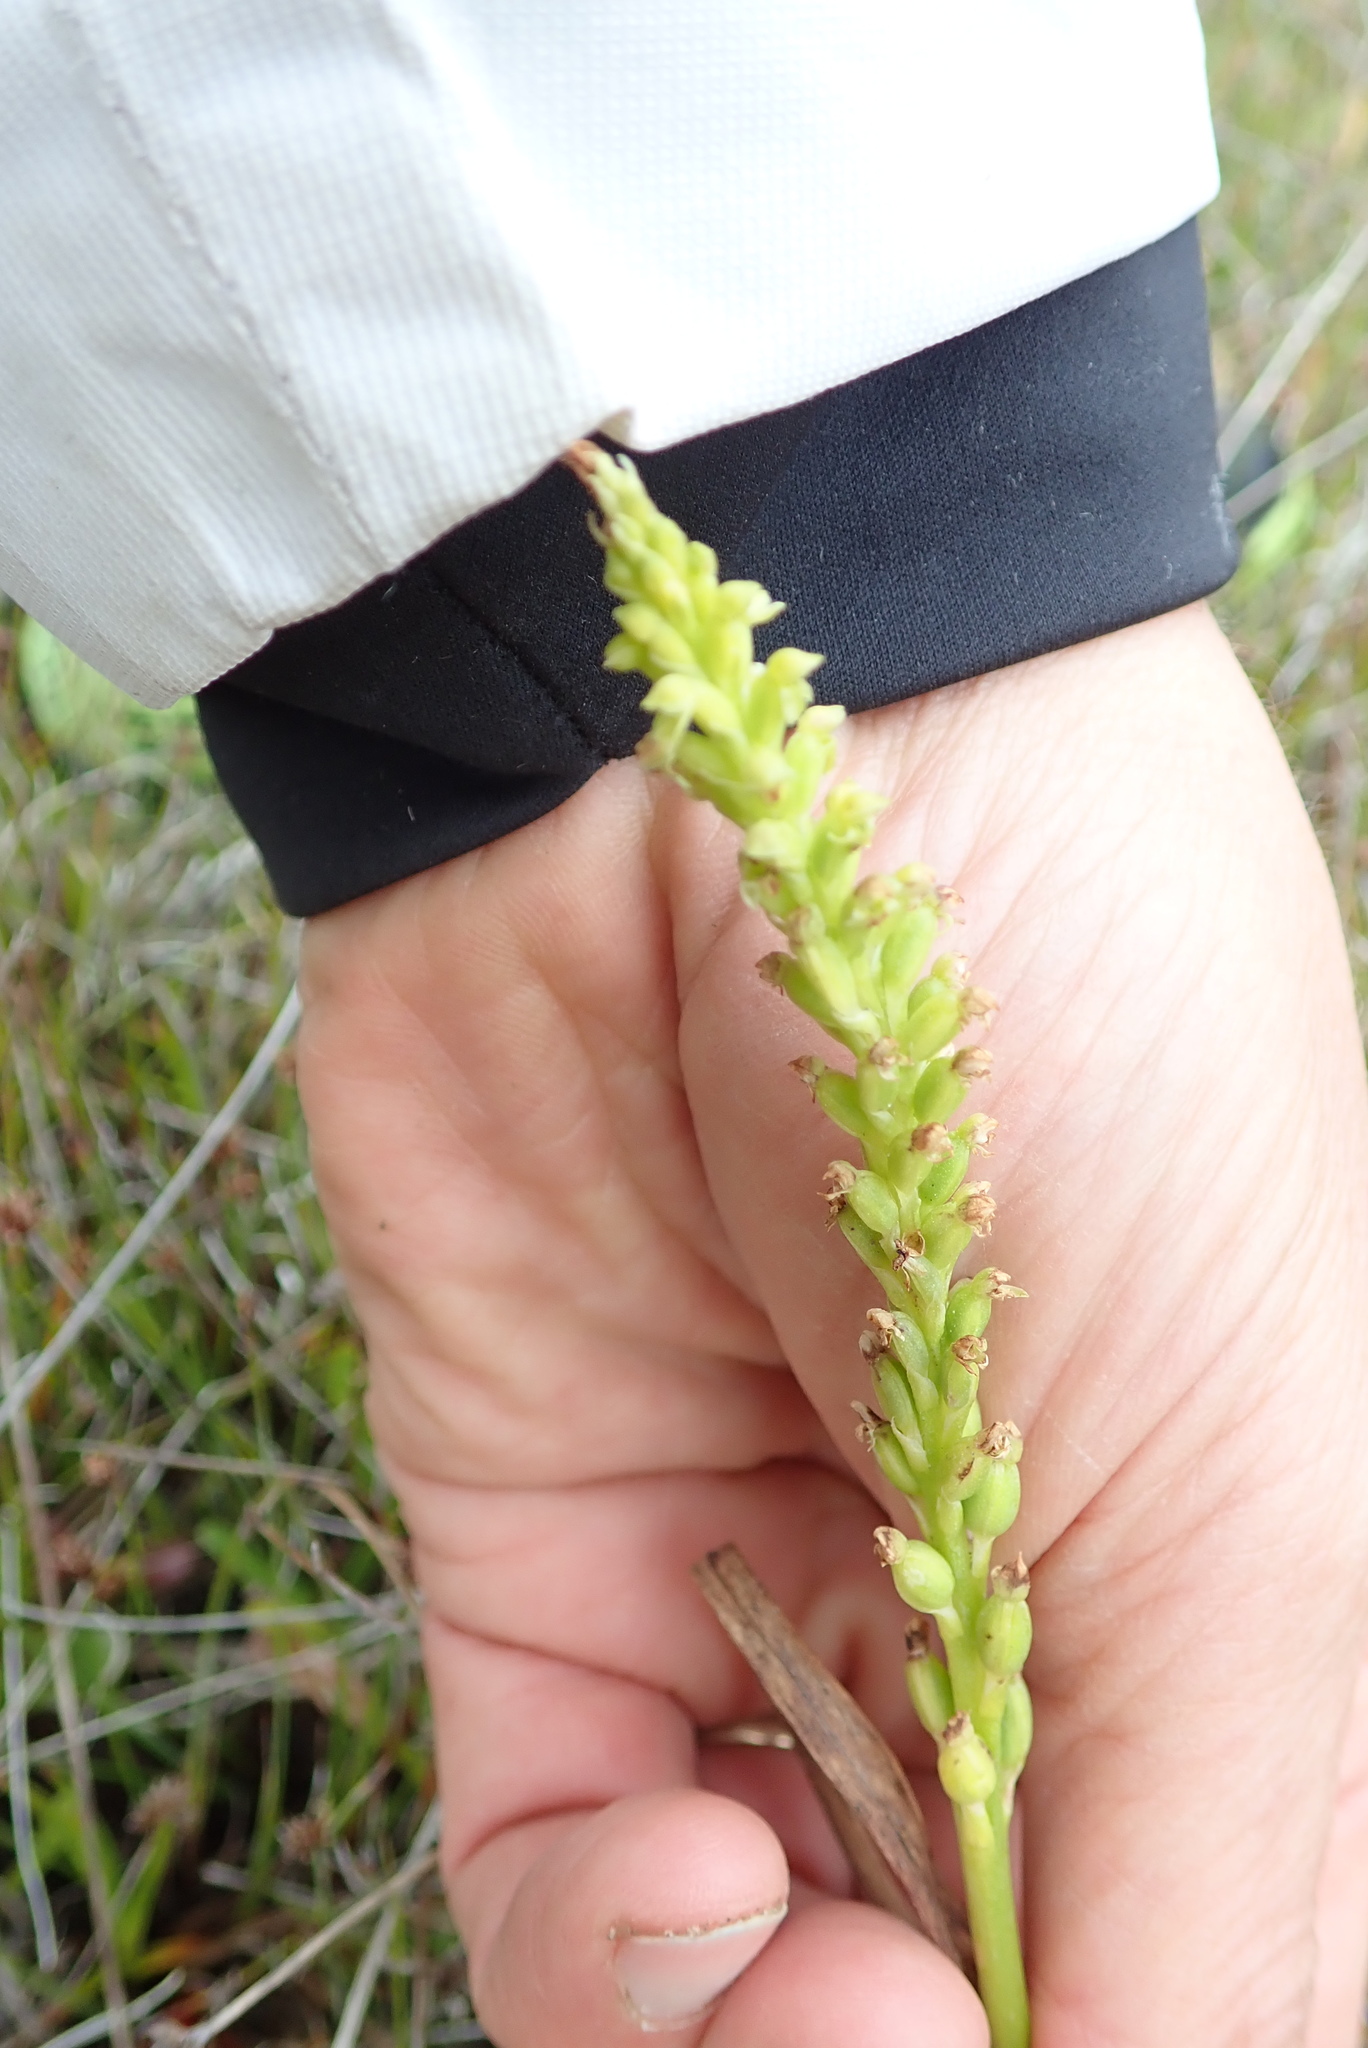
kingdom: Plantae
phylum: Tracheophyta
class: Liliopsida
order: Asparagales
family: Orchidaceae
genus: Microtis
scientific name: Microtis unifolia
